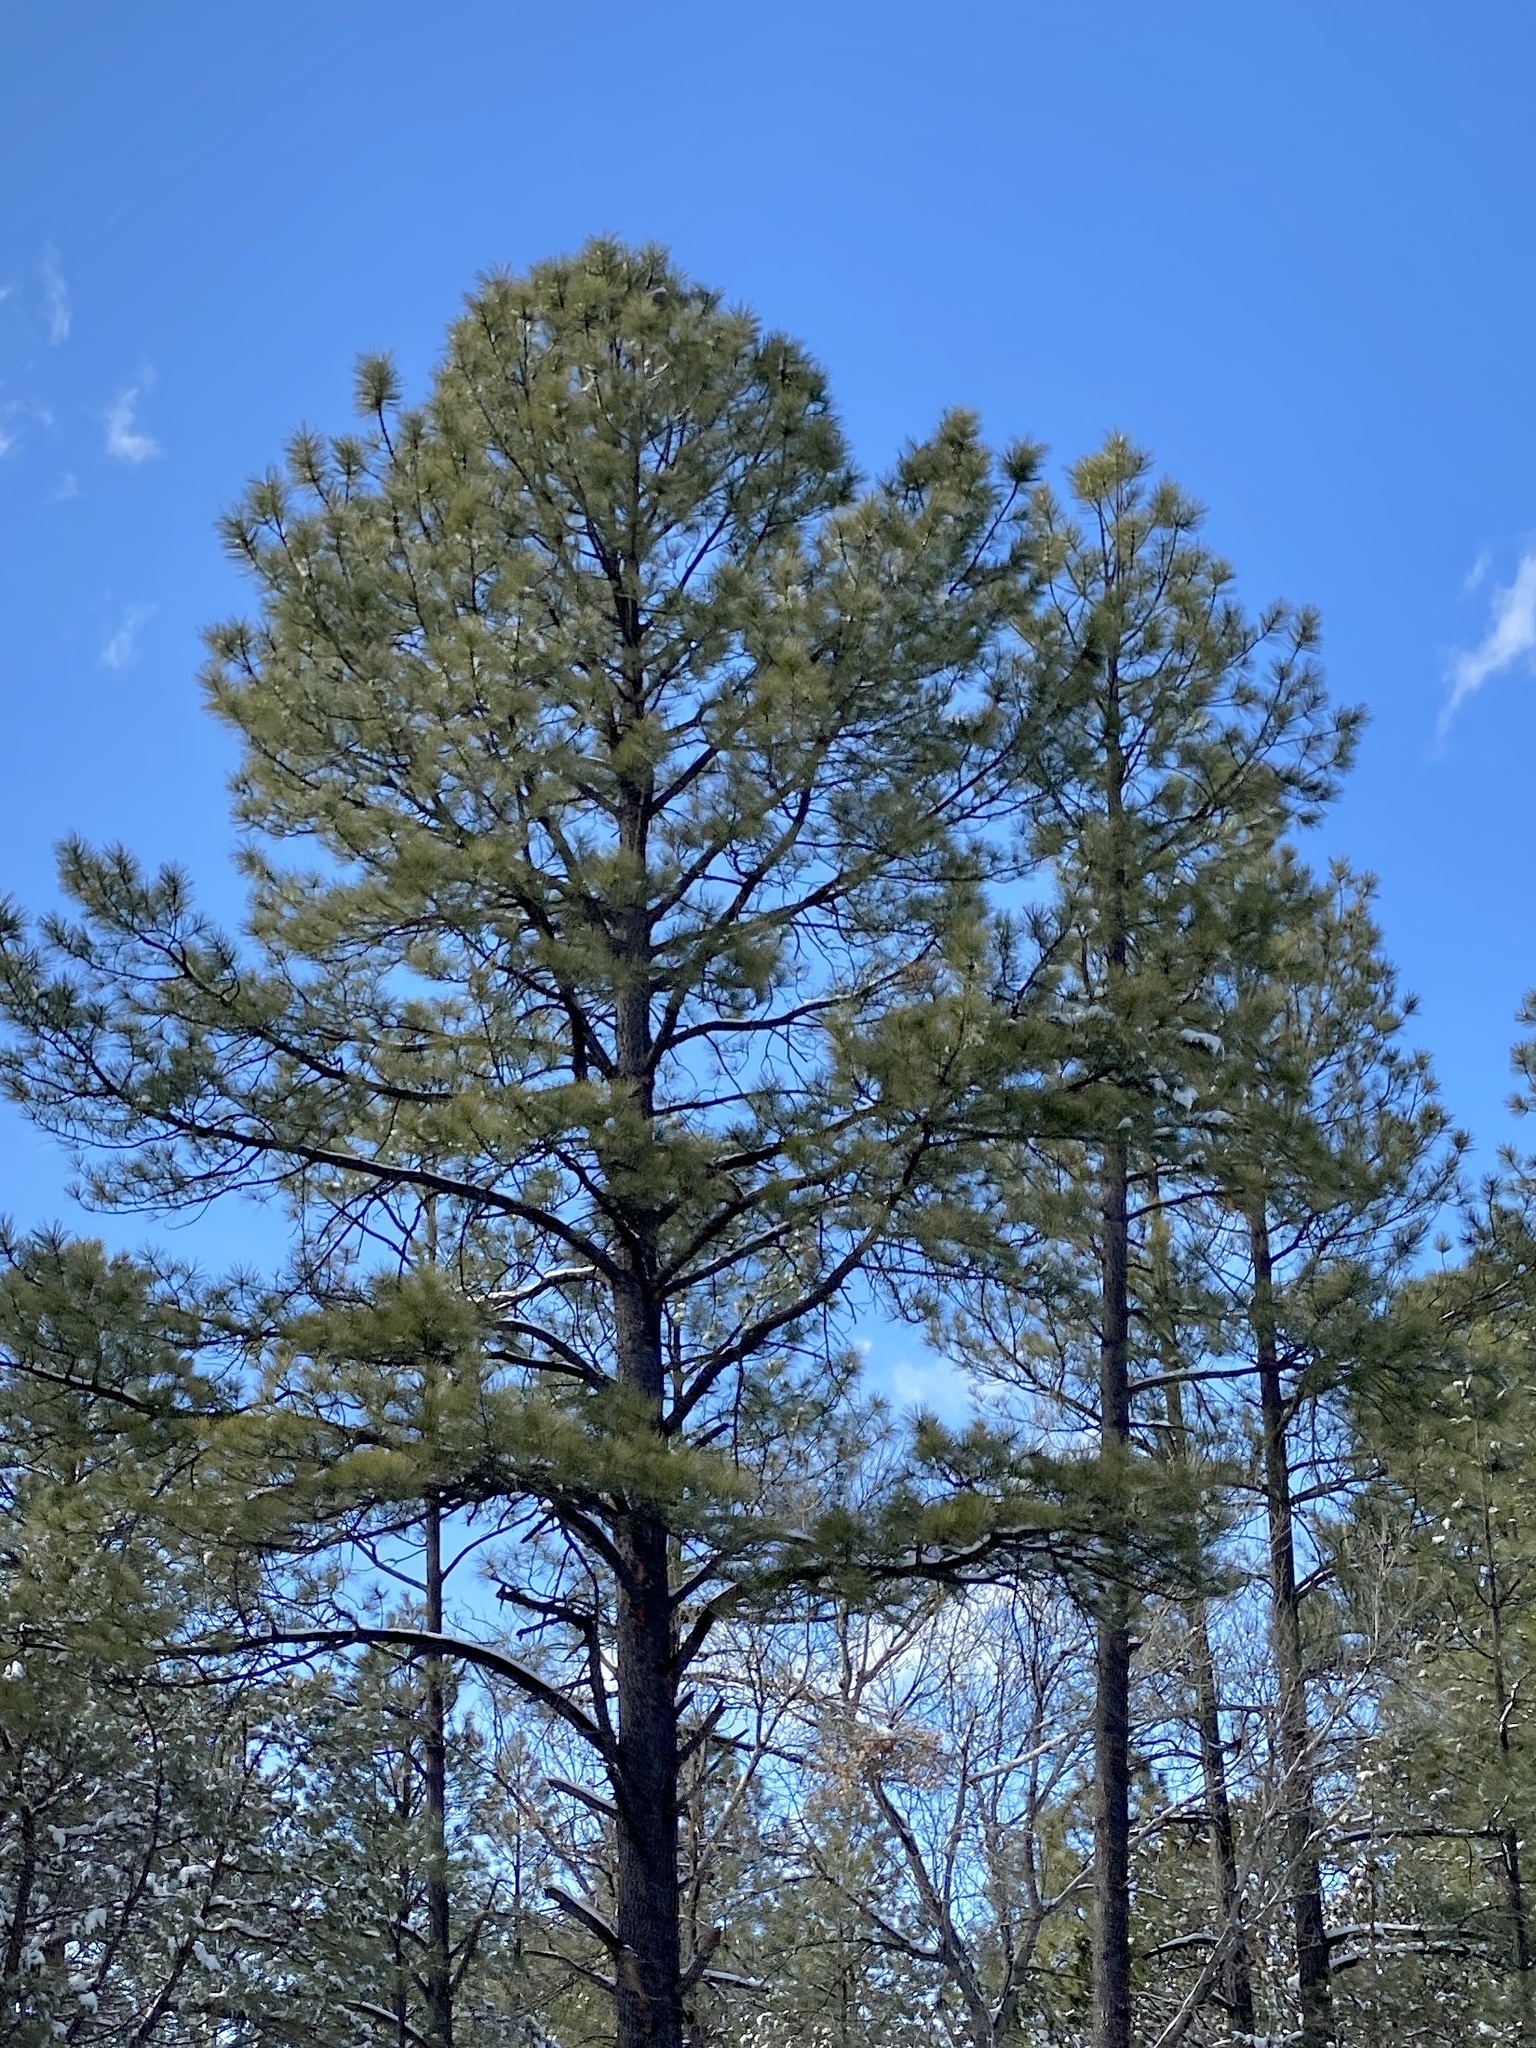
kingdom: Plantae
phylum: Tracheophyta
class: Pinopsida
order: Pinales
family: Pinaceae
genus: Pinus
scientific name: Pinus ponderosa
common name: Western yellow-pine
